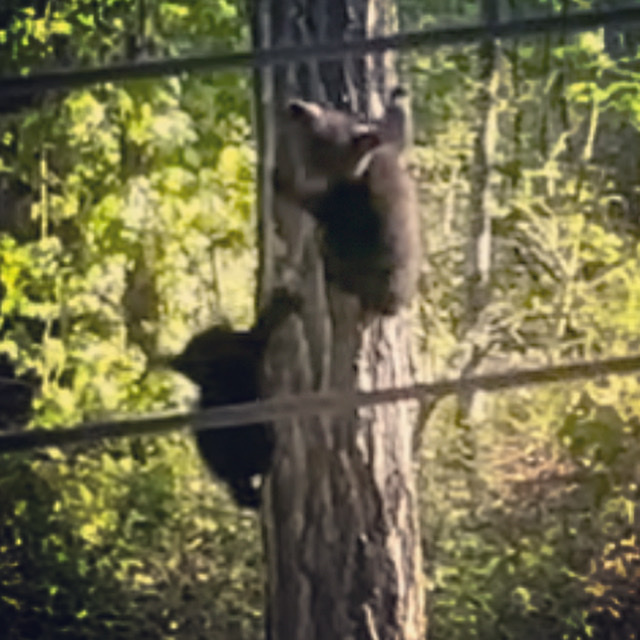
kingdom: Animalia
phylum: Chordata
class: Mammalia
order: Carnivora
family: Ursidae
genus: Ursus
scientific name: Ursus americanus
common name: American black bear
